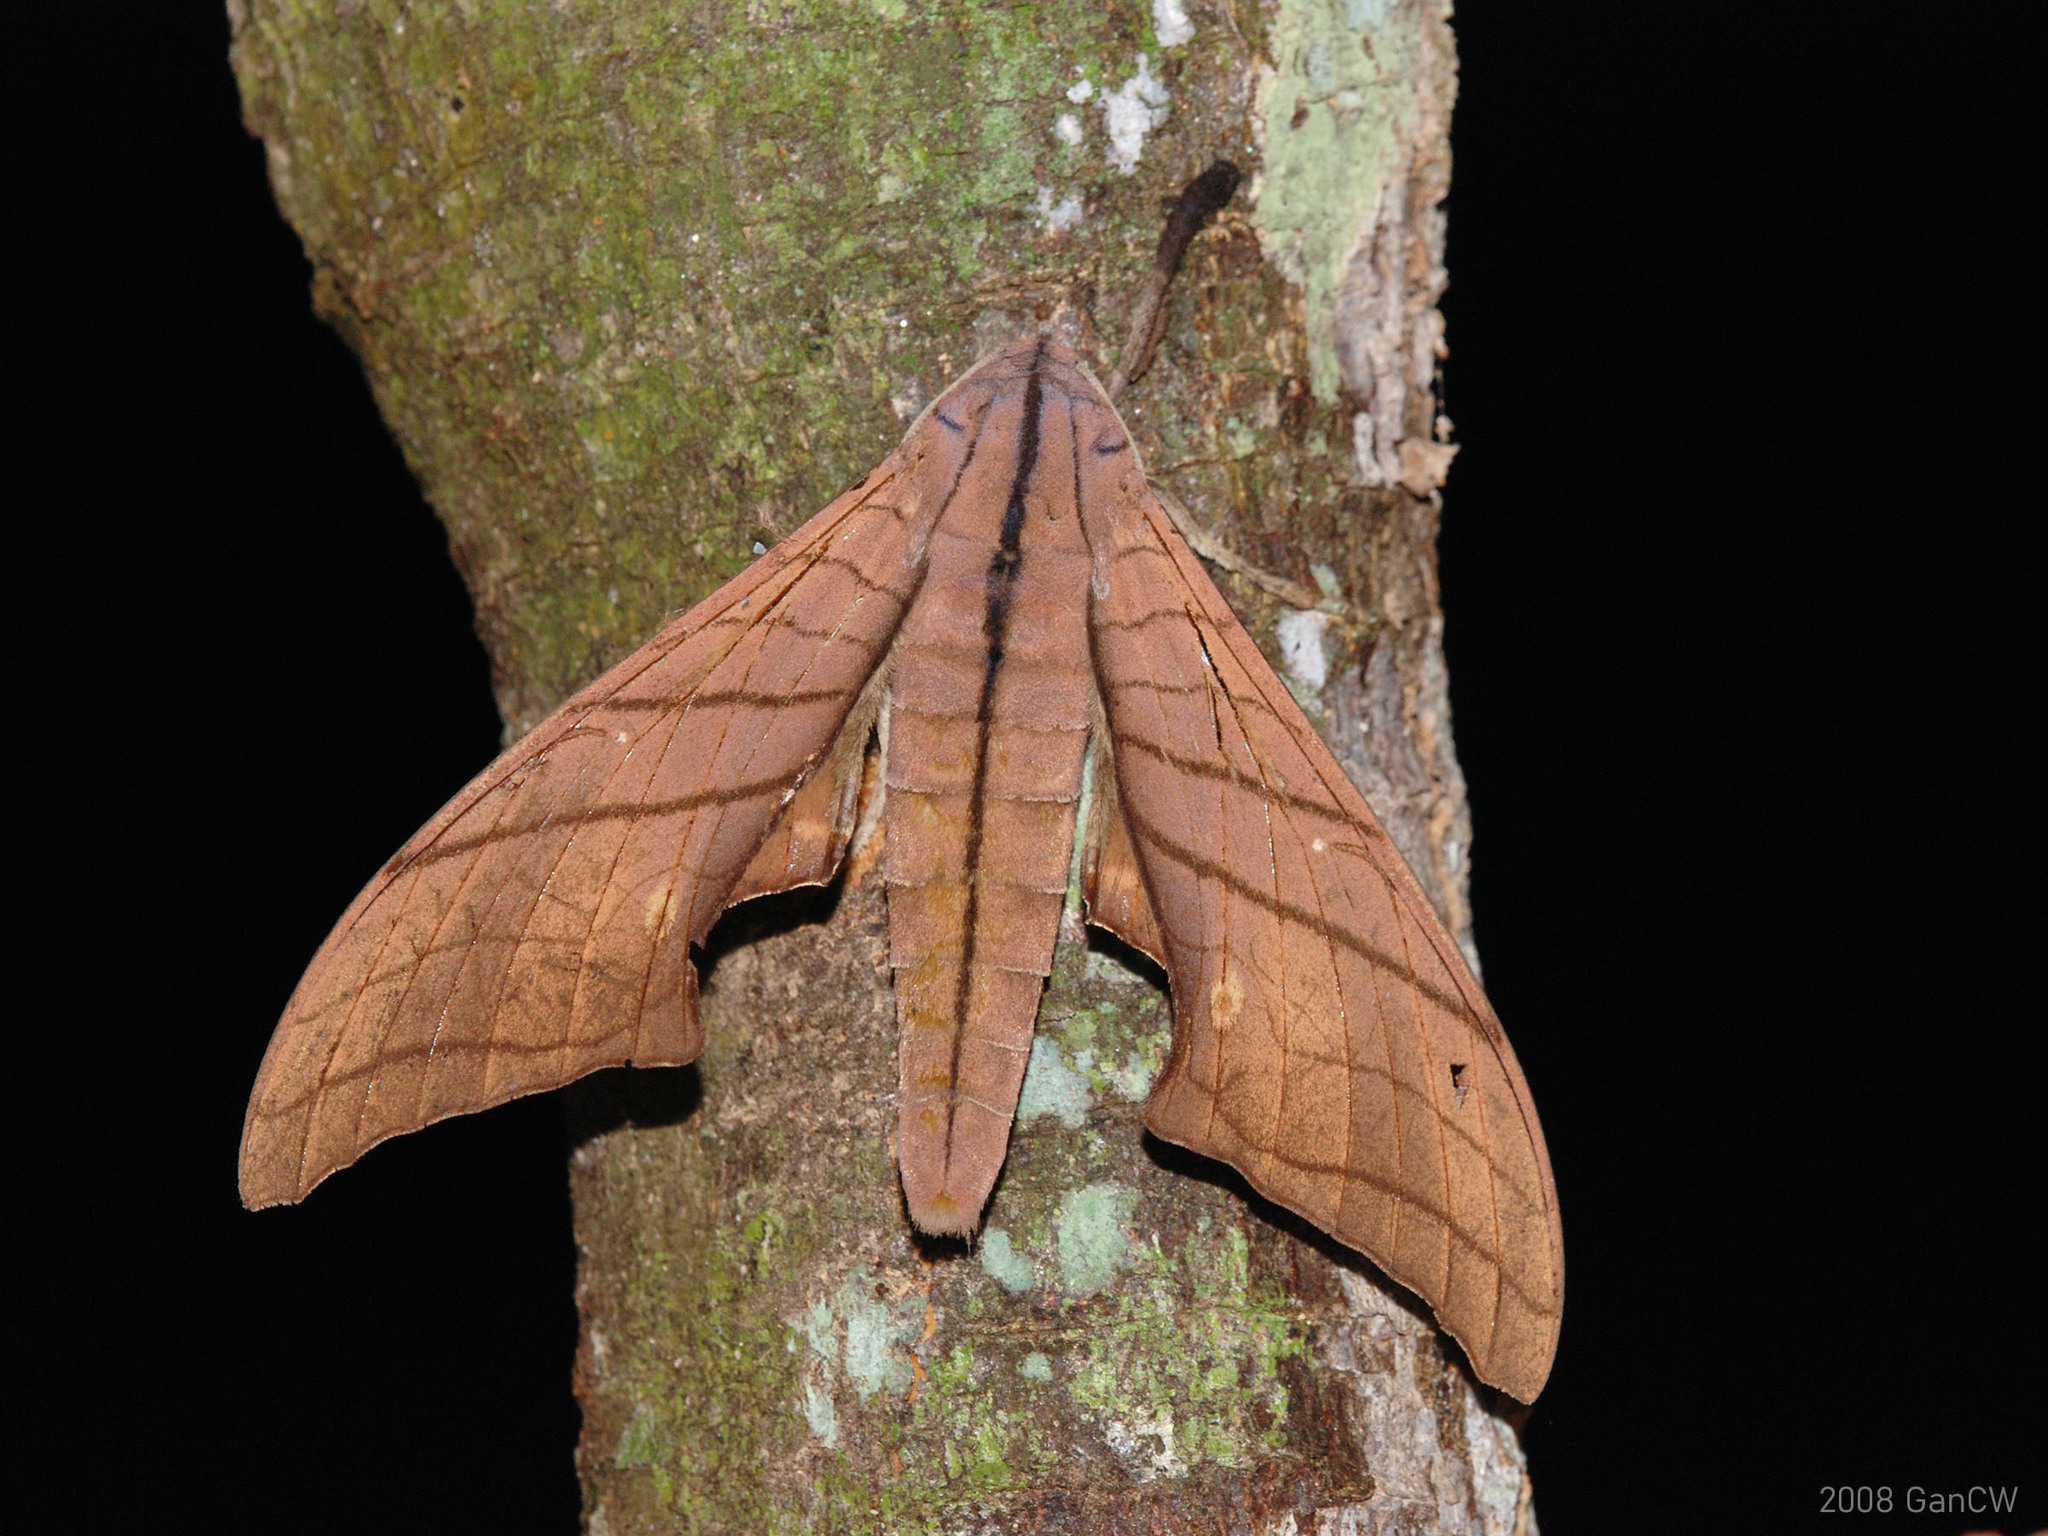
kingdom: Animalia
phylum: Arthropoda
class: Insecta
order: Lepidoptera
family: Sphingidae
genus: Marumba
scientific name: Marumba cristata
